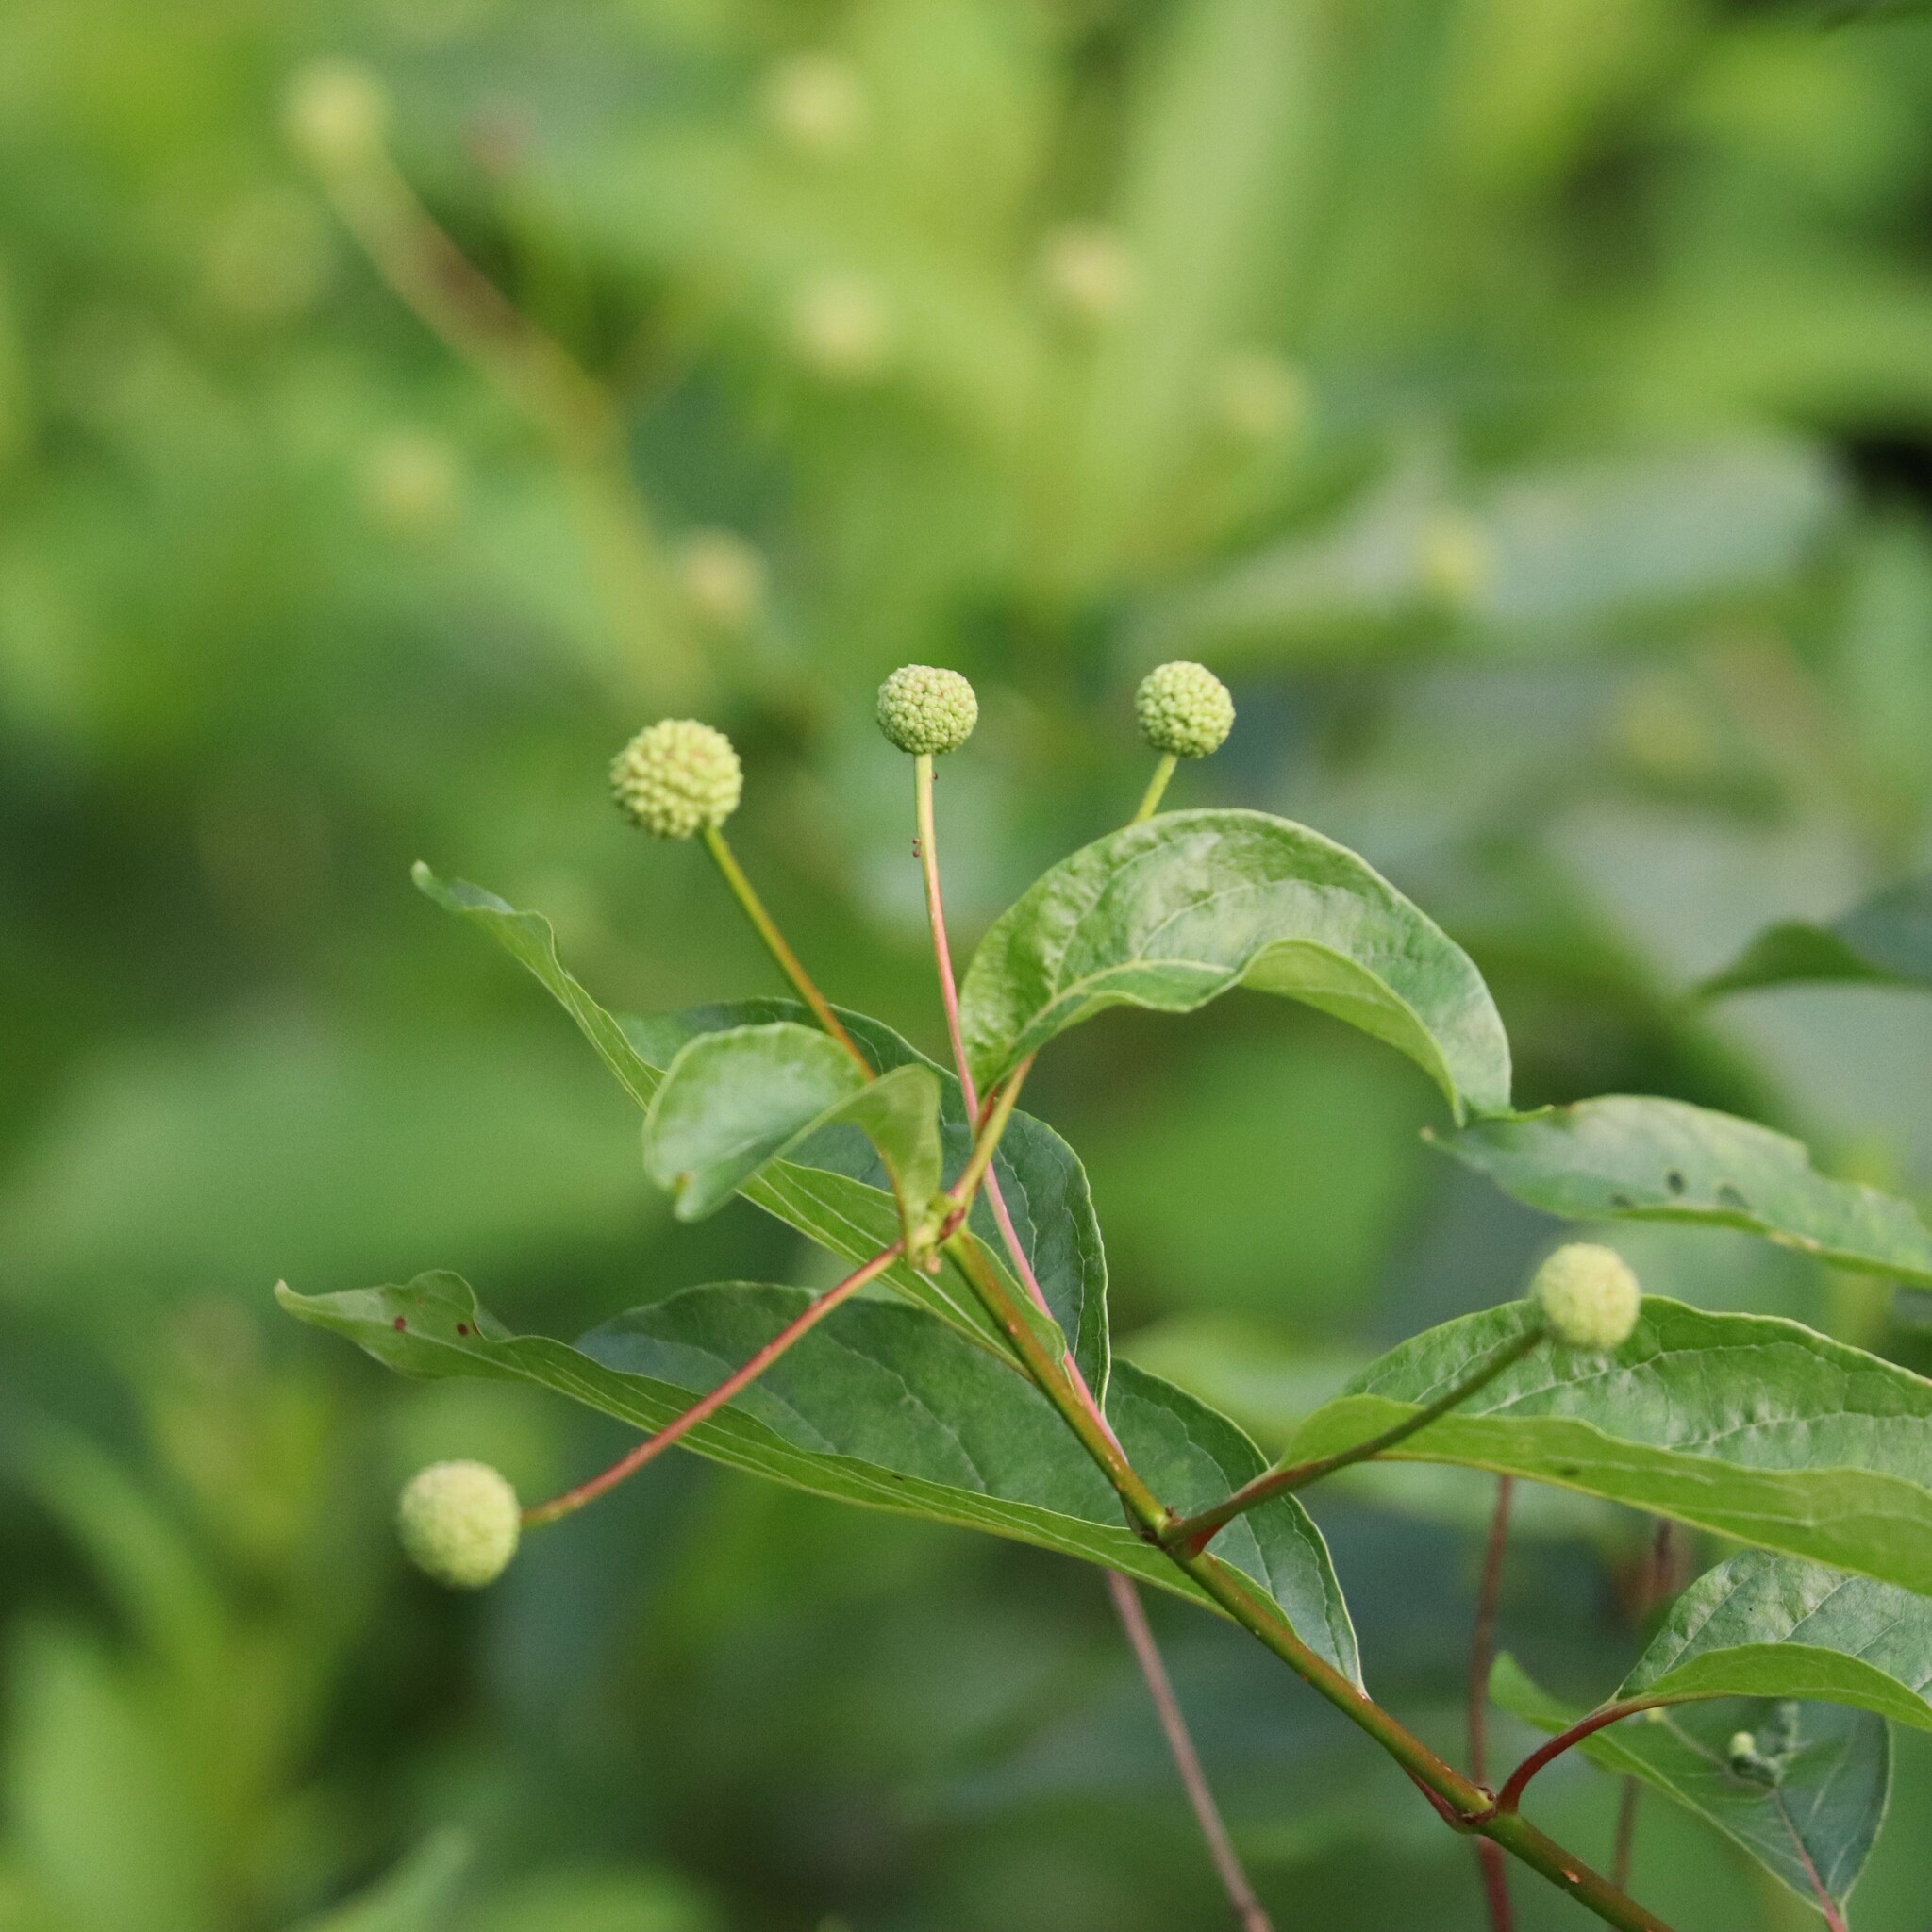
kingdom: Plantae
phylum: Tracheophyta
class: Magnoliopsida
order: Gentianales
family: Rubiaceae
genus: Cephalanthus
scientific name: Cephalanthus occidentalis
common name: Button-willow
